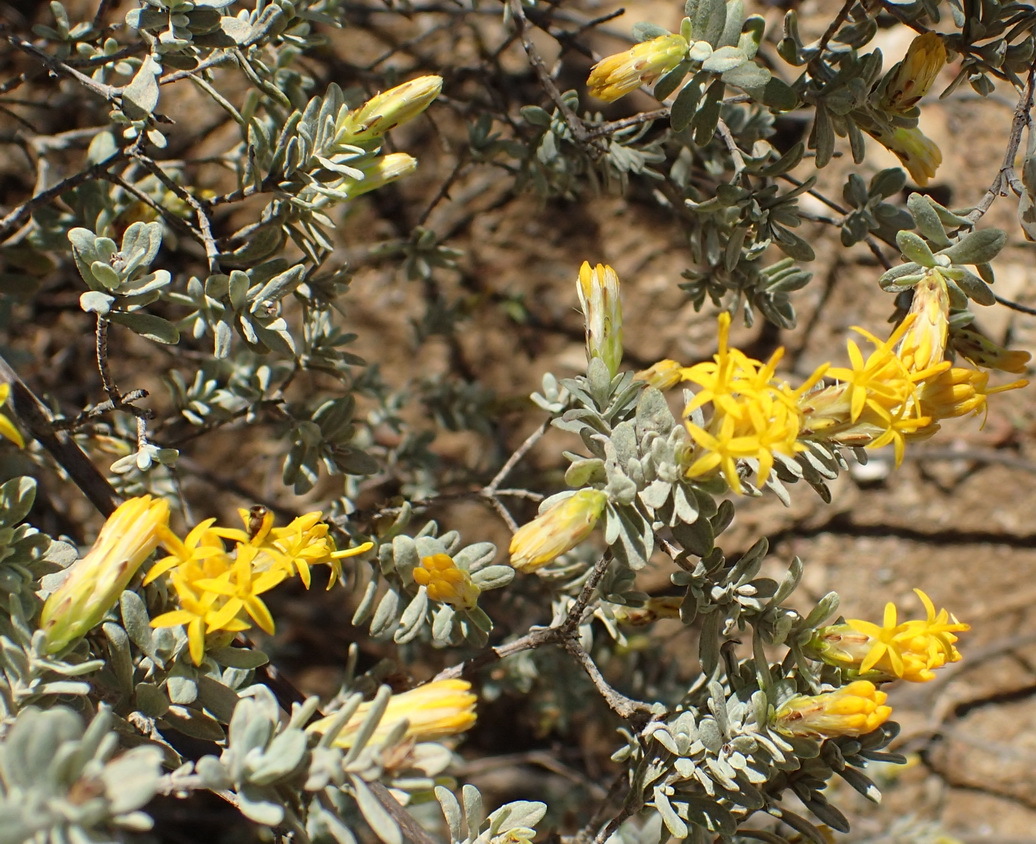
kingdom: Plantae
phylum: Tracheophyta
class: Magnoliopsida
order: Asterales
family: Asteraceae
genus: Pteronia
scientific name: Pteronia incana
